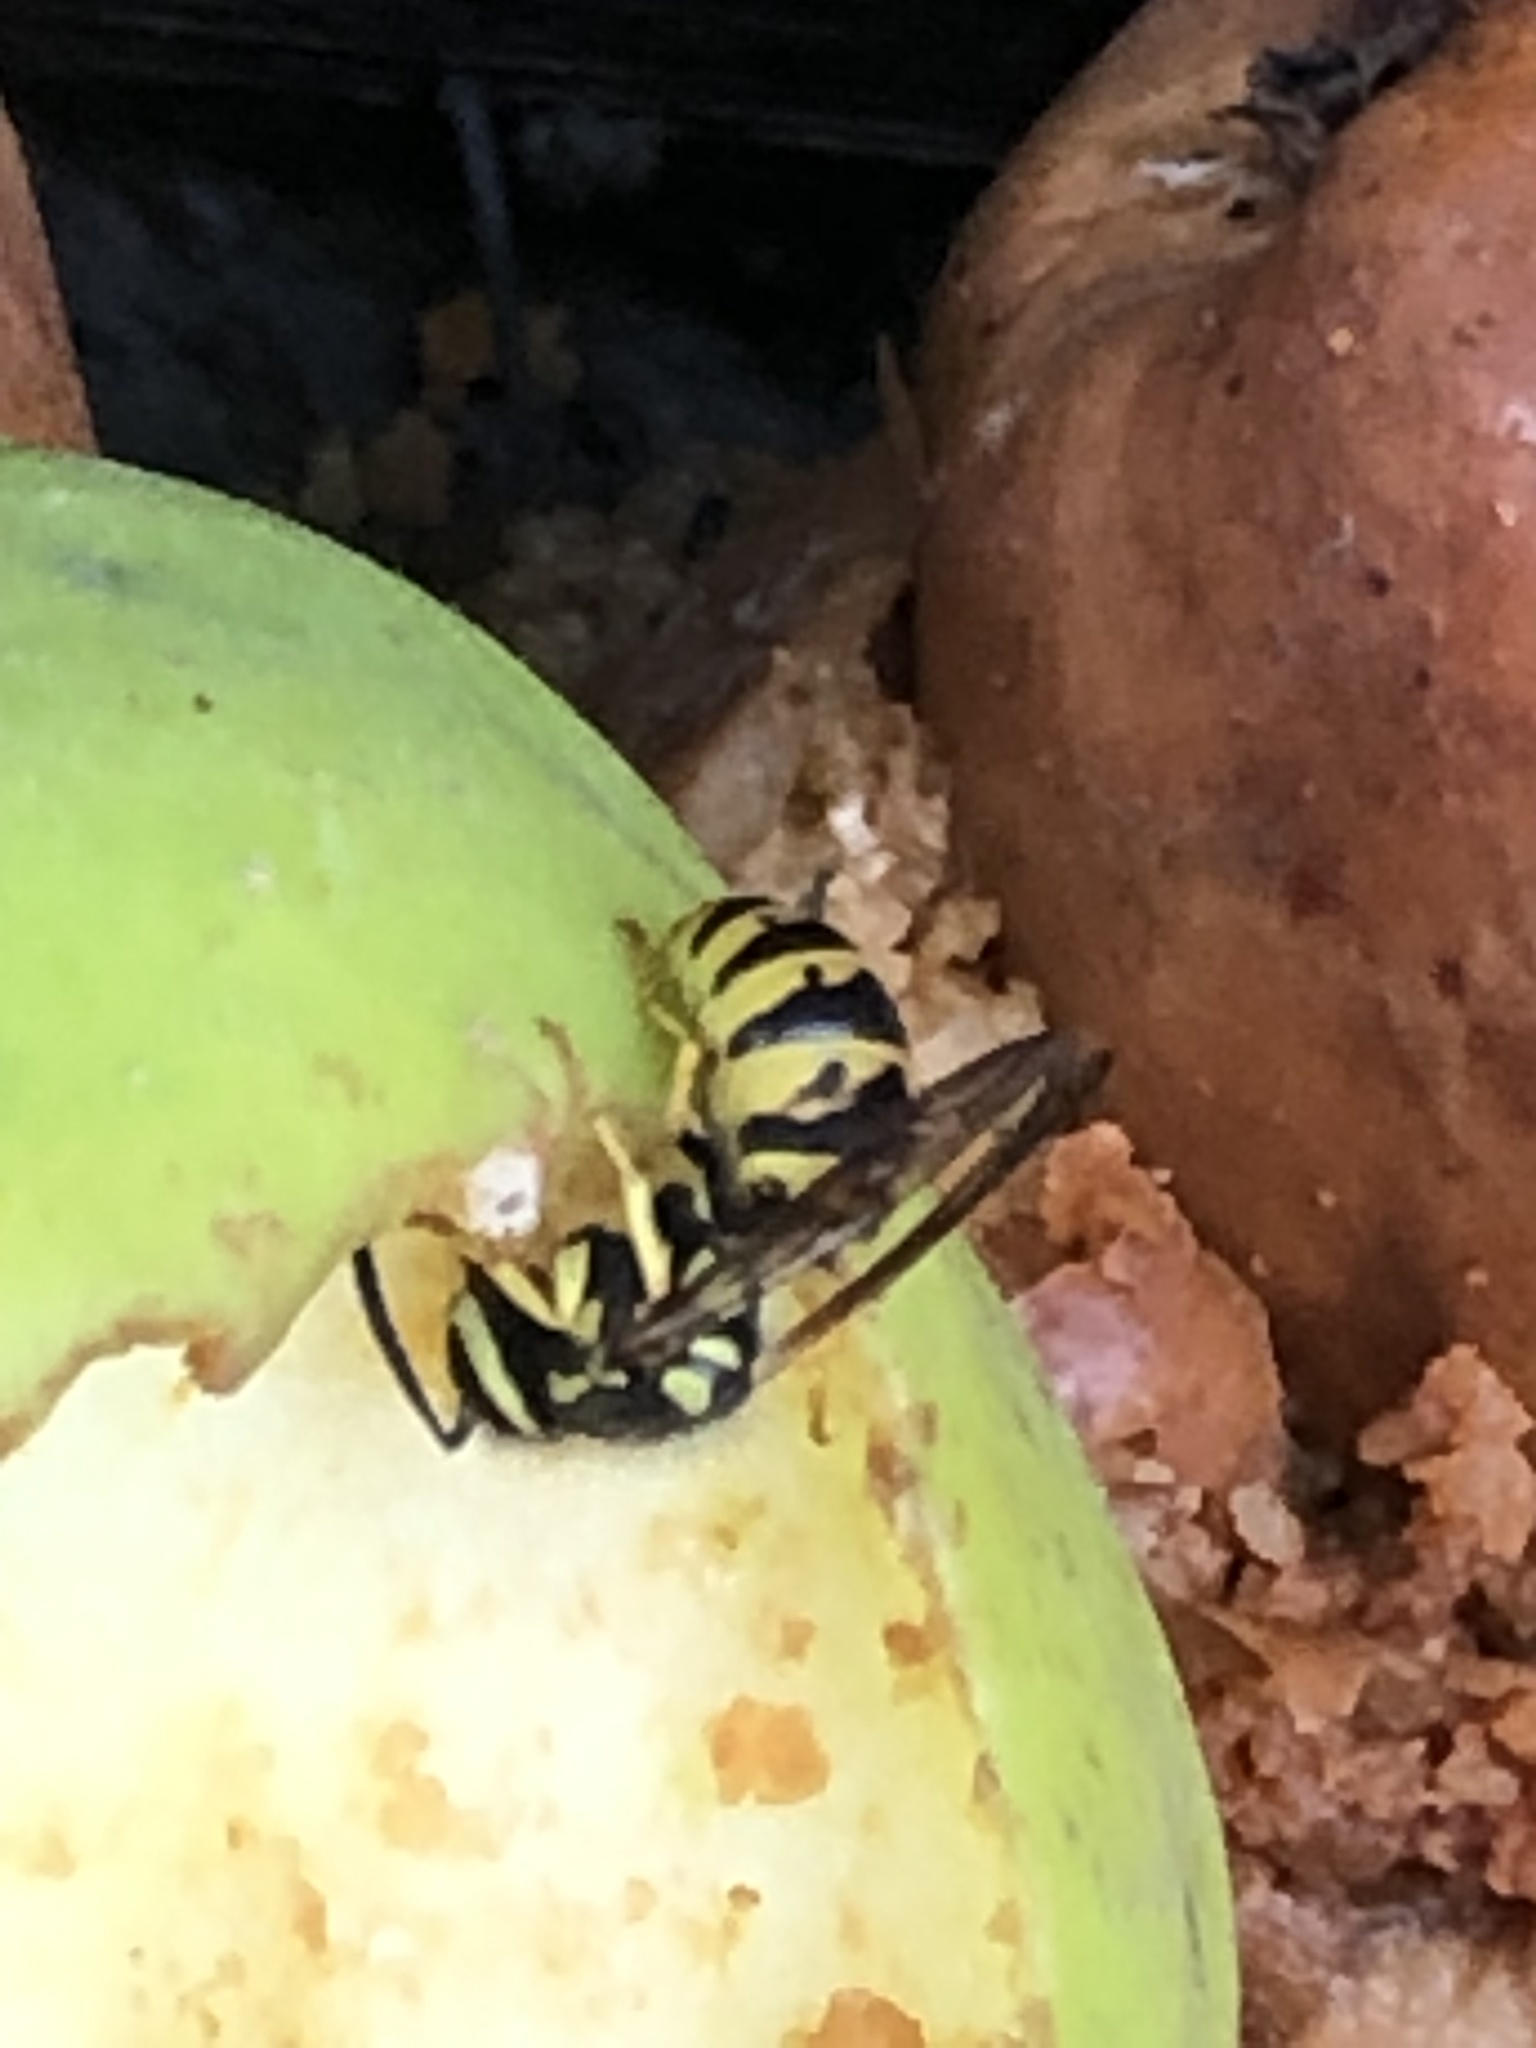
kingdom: Animalia
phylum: Arthropoda
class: Insecta
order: Hymenoptera
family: Vespidae
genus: Vespula
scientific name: Vespula germanica
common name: German wasp
